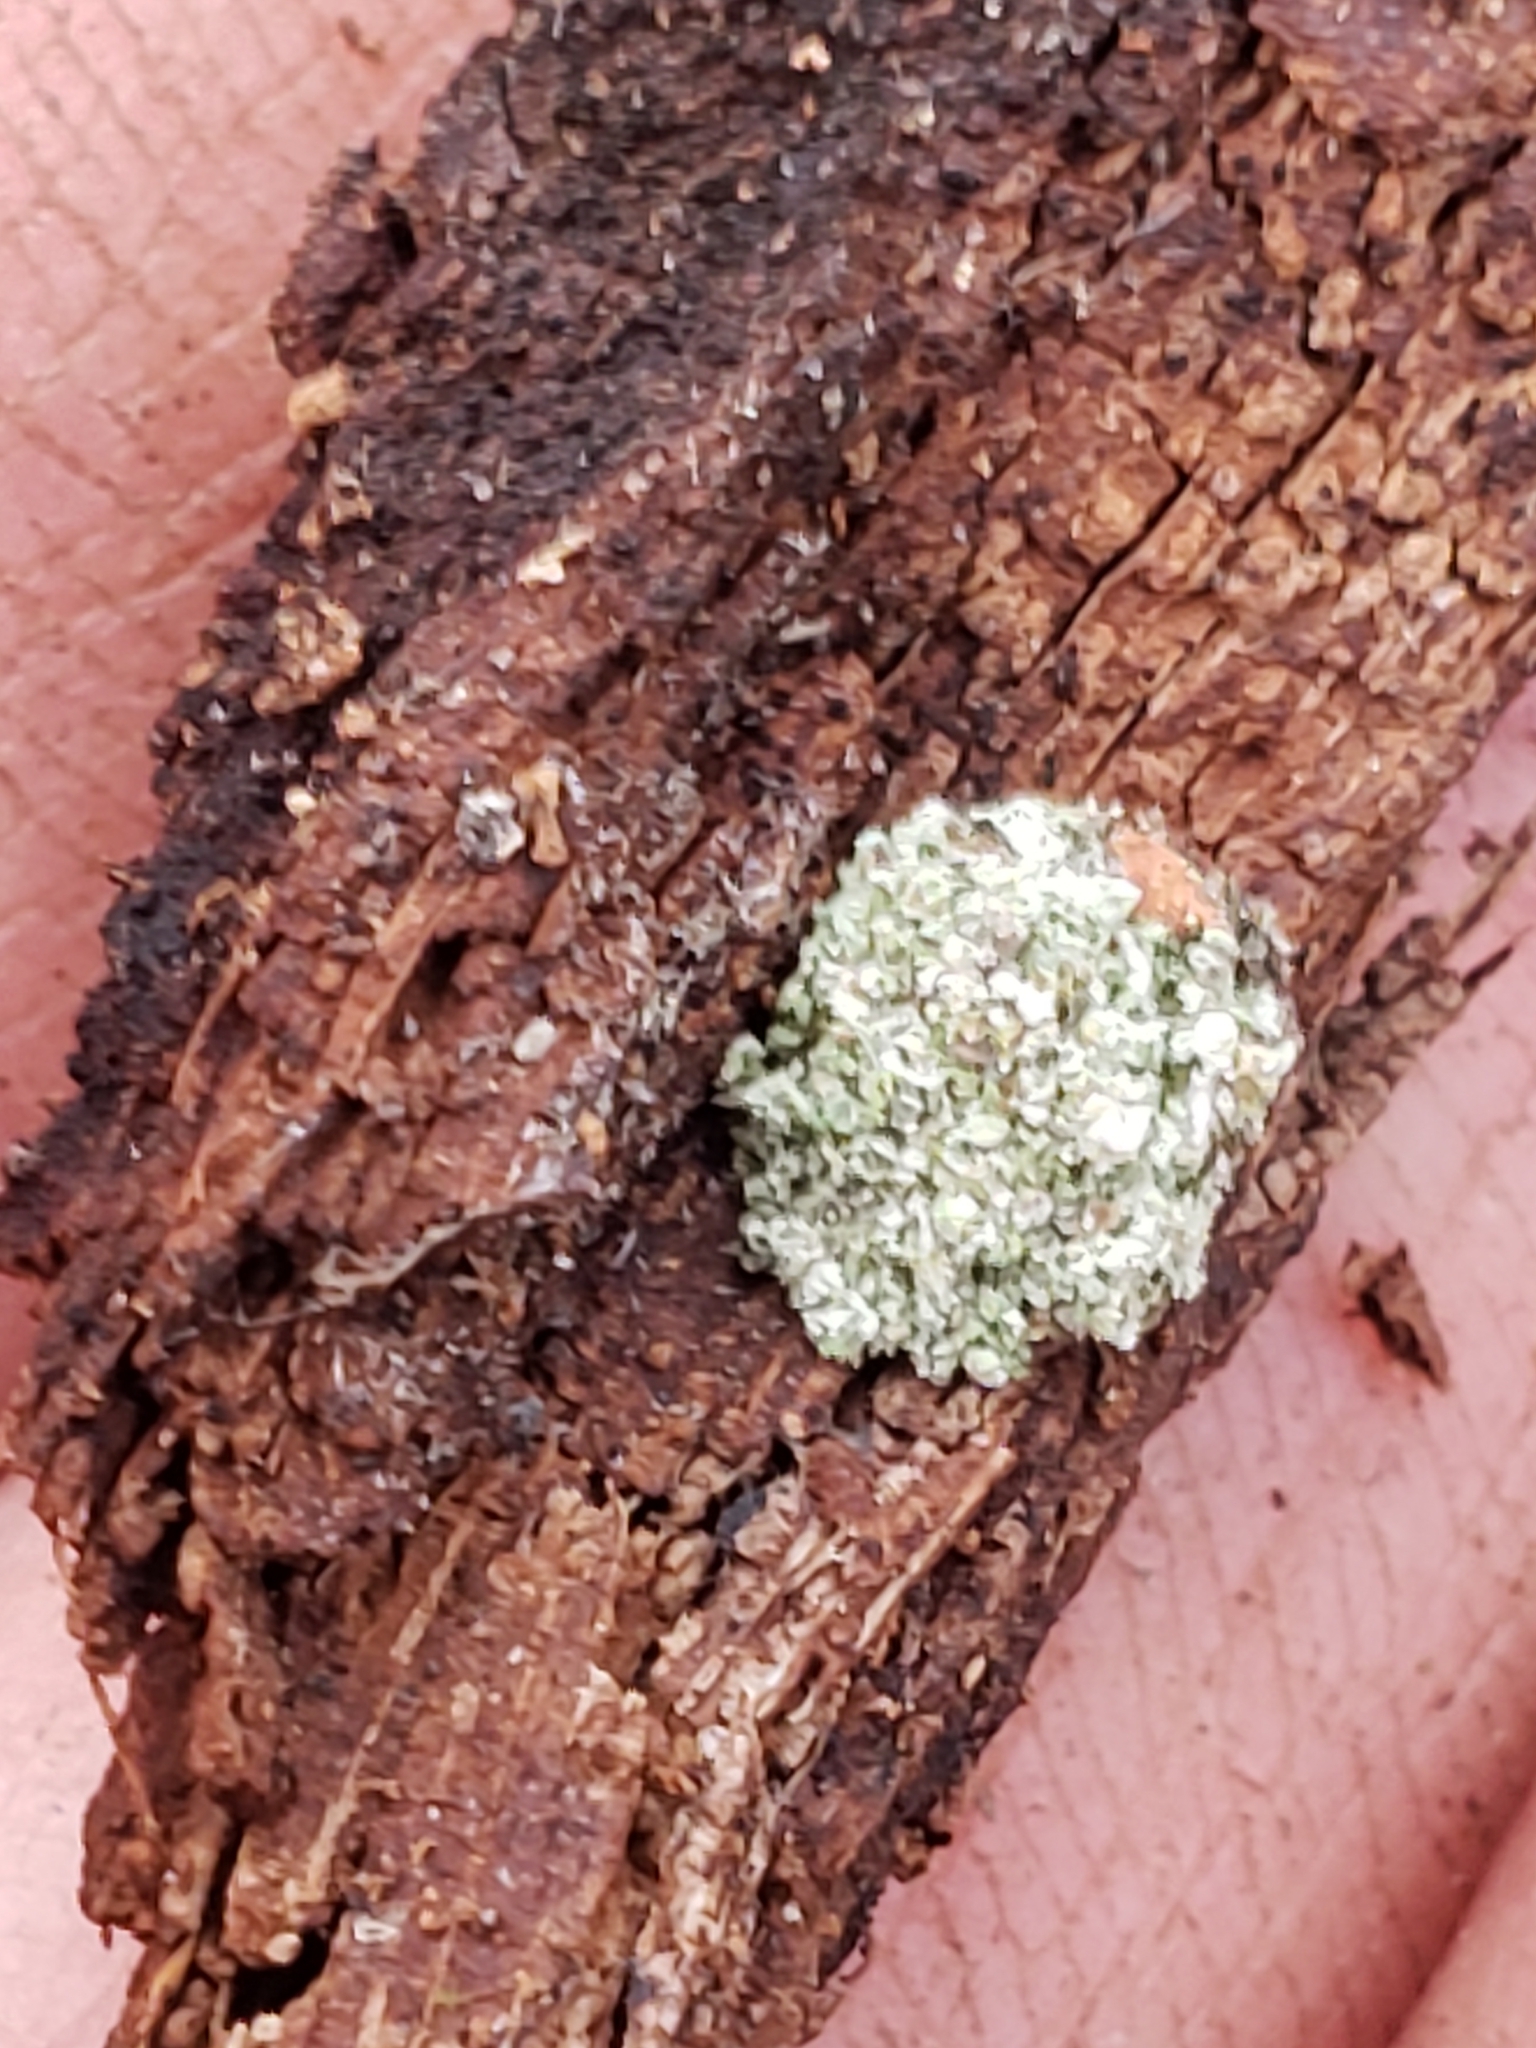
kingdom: Animalia
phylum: Arthropoda
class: Insecta
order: Neuroptera
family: Chrysopidae
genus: Leucochrysa
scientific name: Leucochrysa pavida
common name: Lichen-carrying green lacewing
